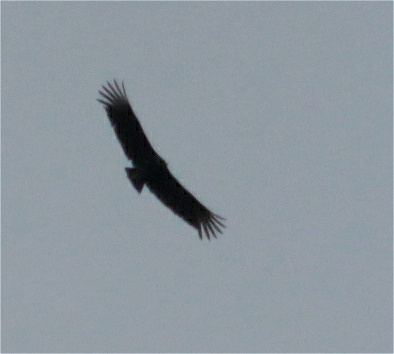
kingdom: Animalia
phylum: Chordata
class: Aves
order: Accipitriformes
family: Cathartidae
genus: Coragyps
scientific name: Coragyps atratus
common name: Black vulture
